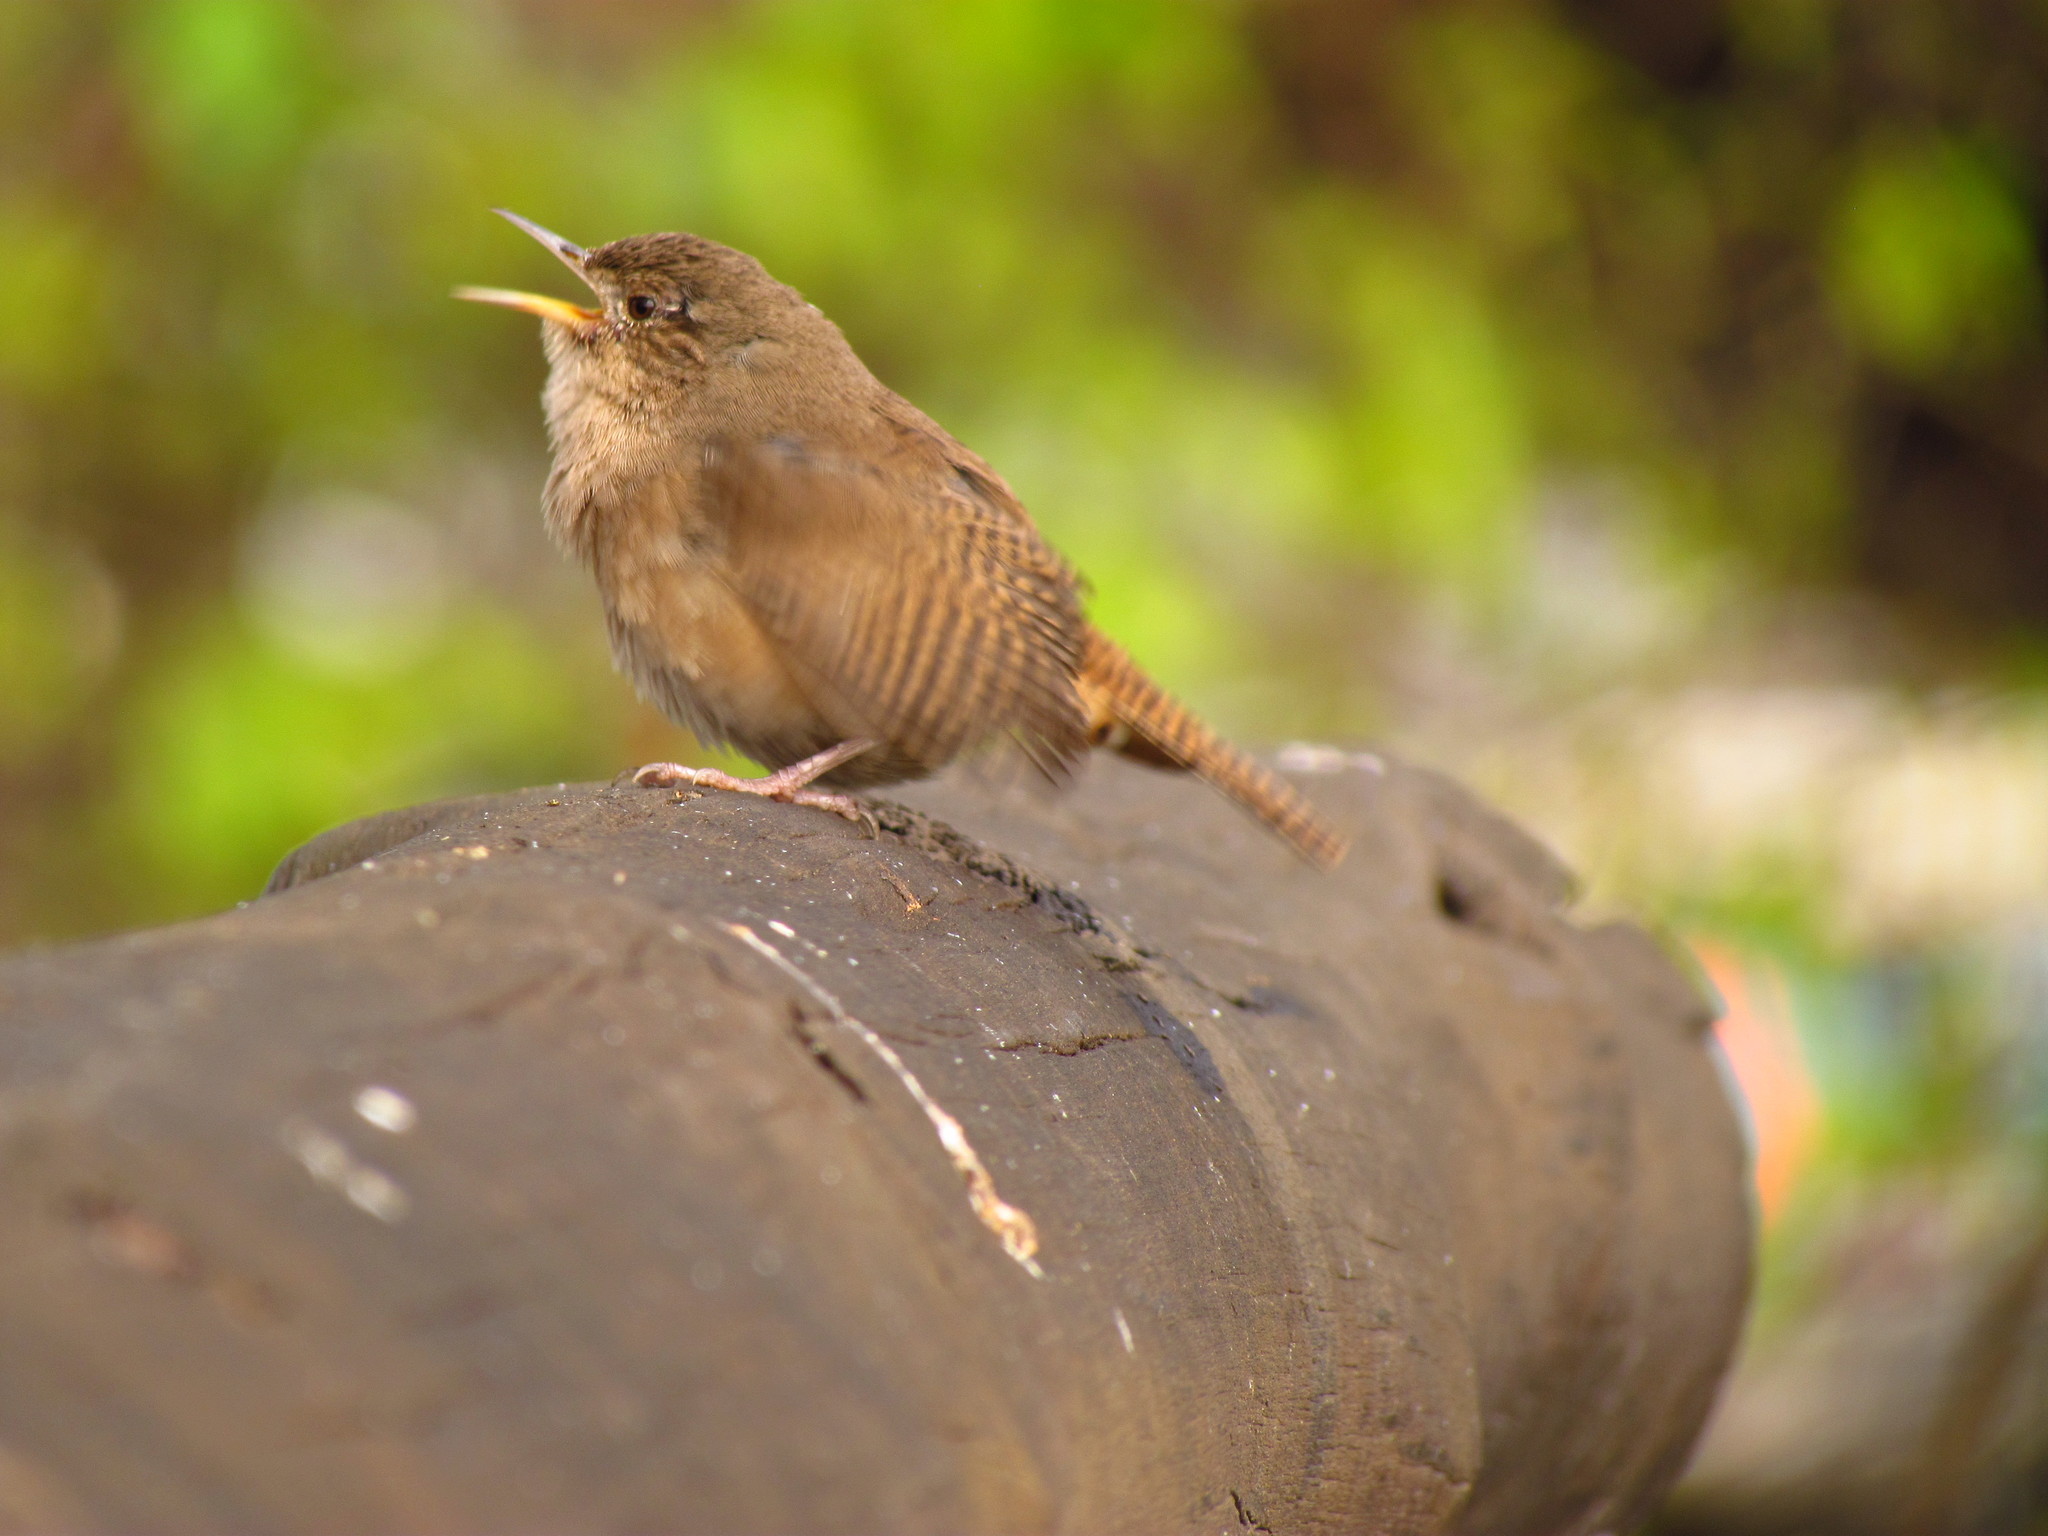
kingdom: Animalia
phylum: Chordata
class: Aves
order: Passeriformes
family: Troglodytidae
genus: Troglodytes
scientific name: Troglodytes aedon
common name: House wren
